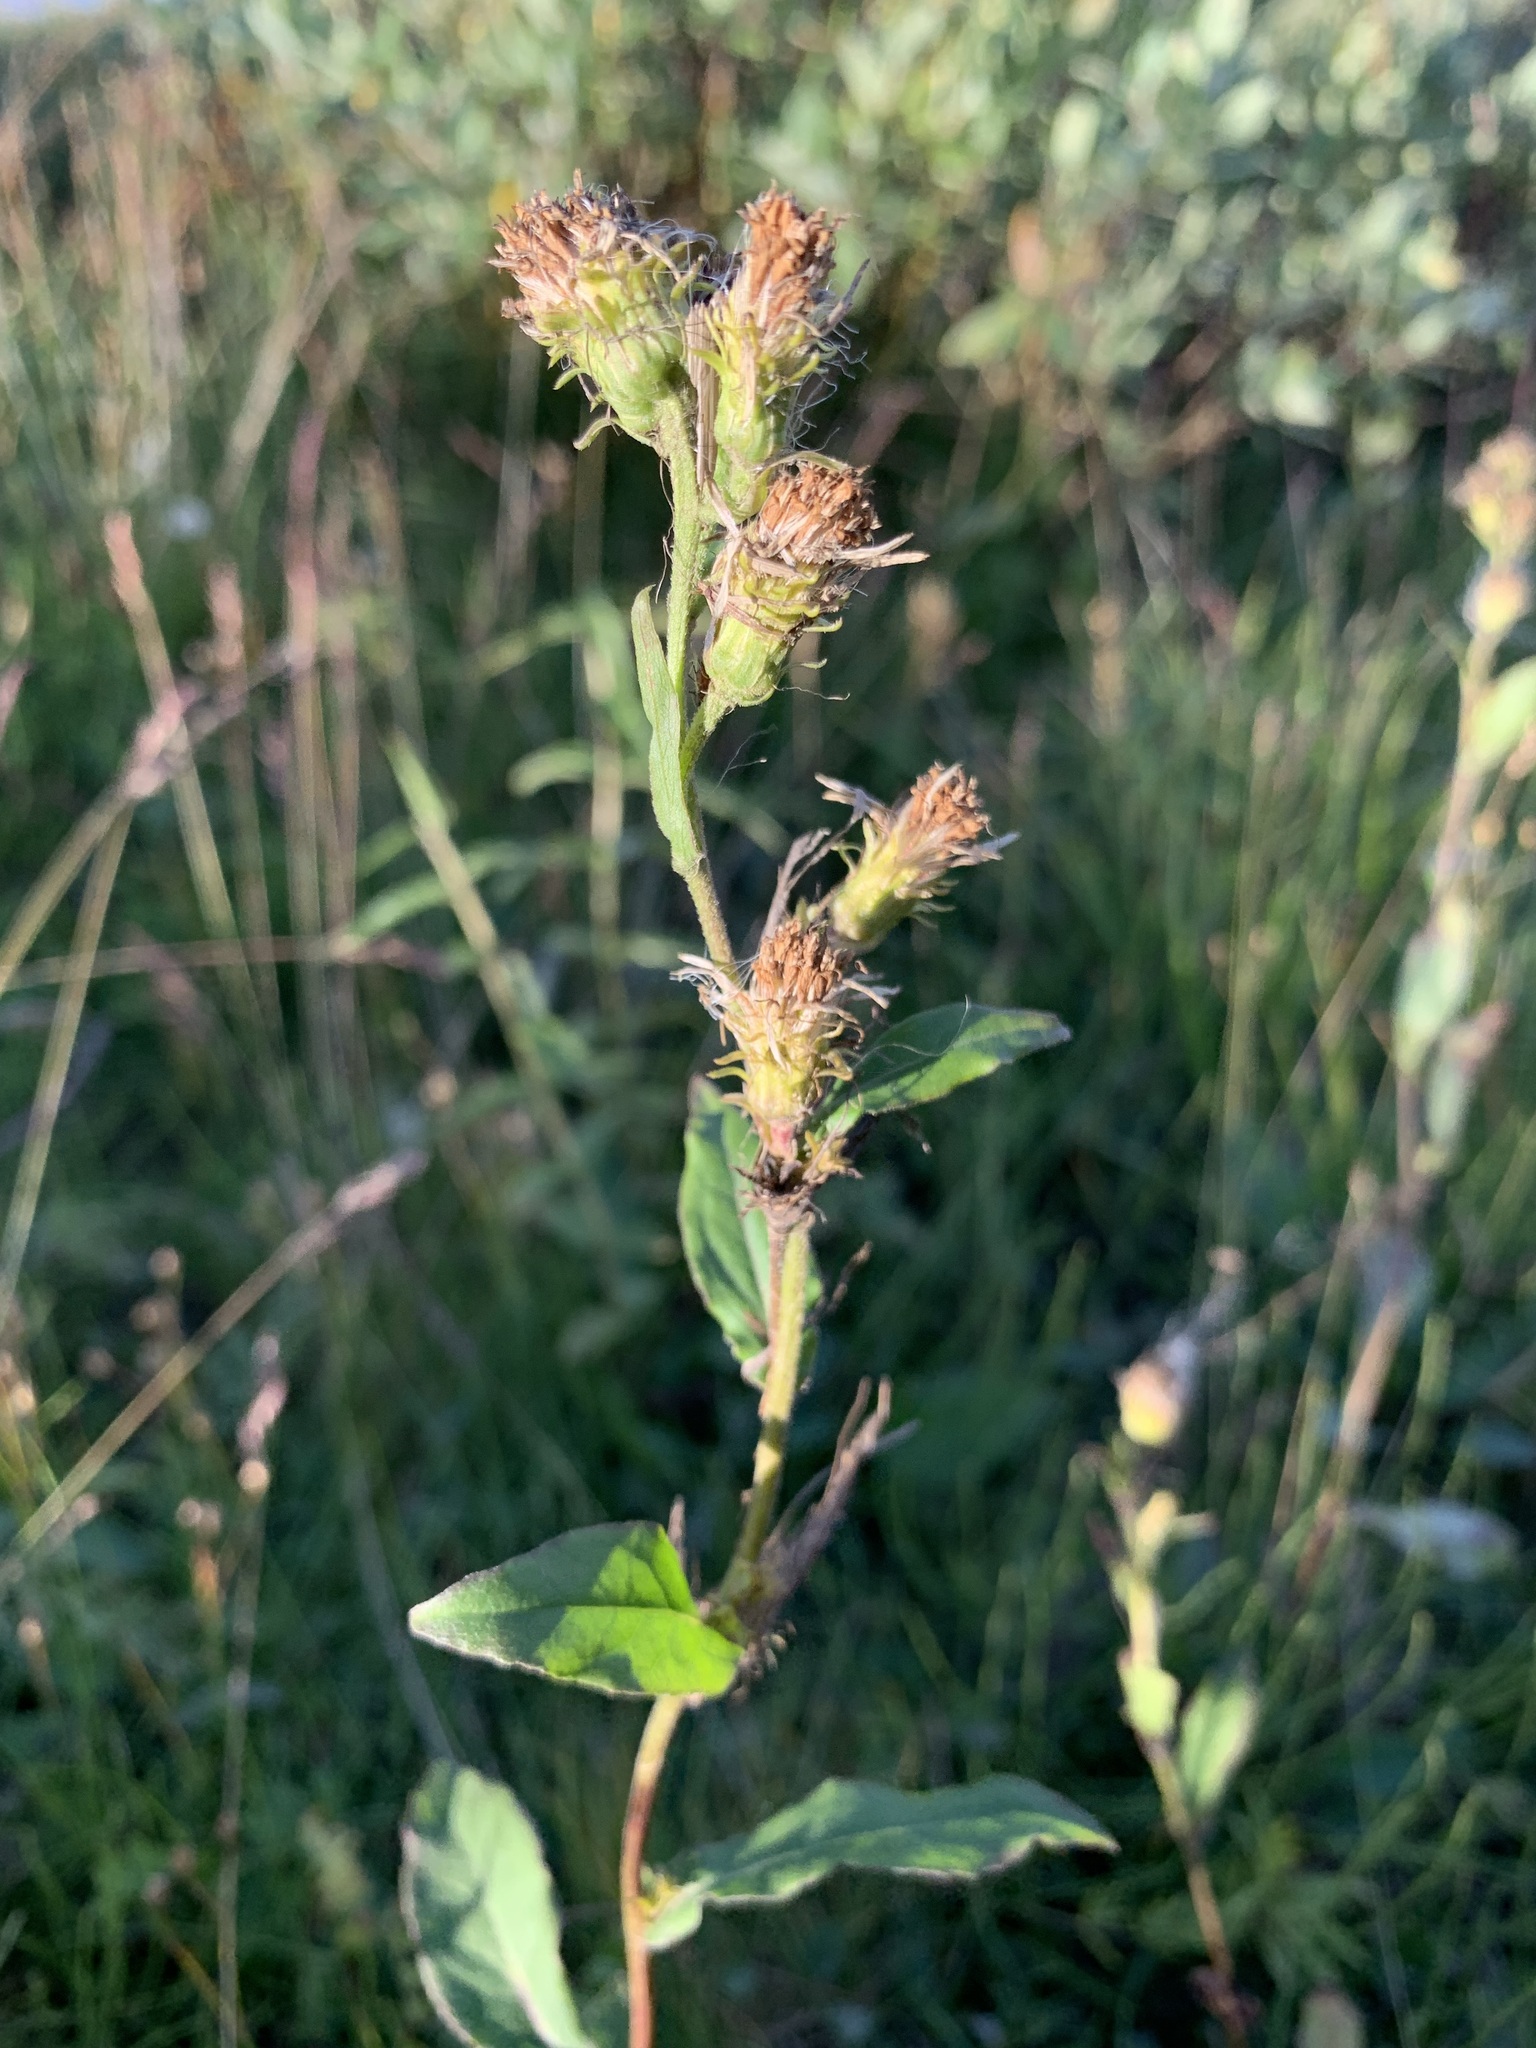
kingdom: Plantae
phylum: Tracheophyta
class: Magnoliopsida
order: Asterales
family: Asteraceae
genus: Solidago
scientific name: Solidago virgaurea
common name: Goldenrod
